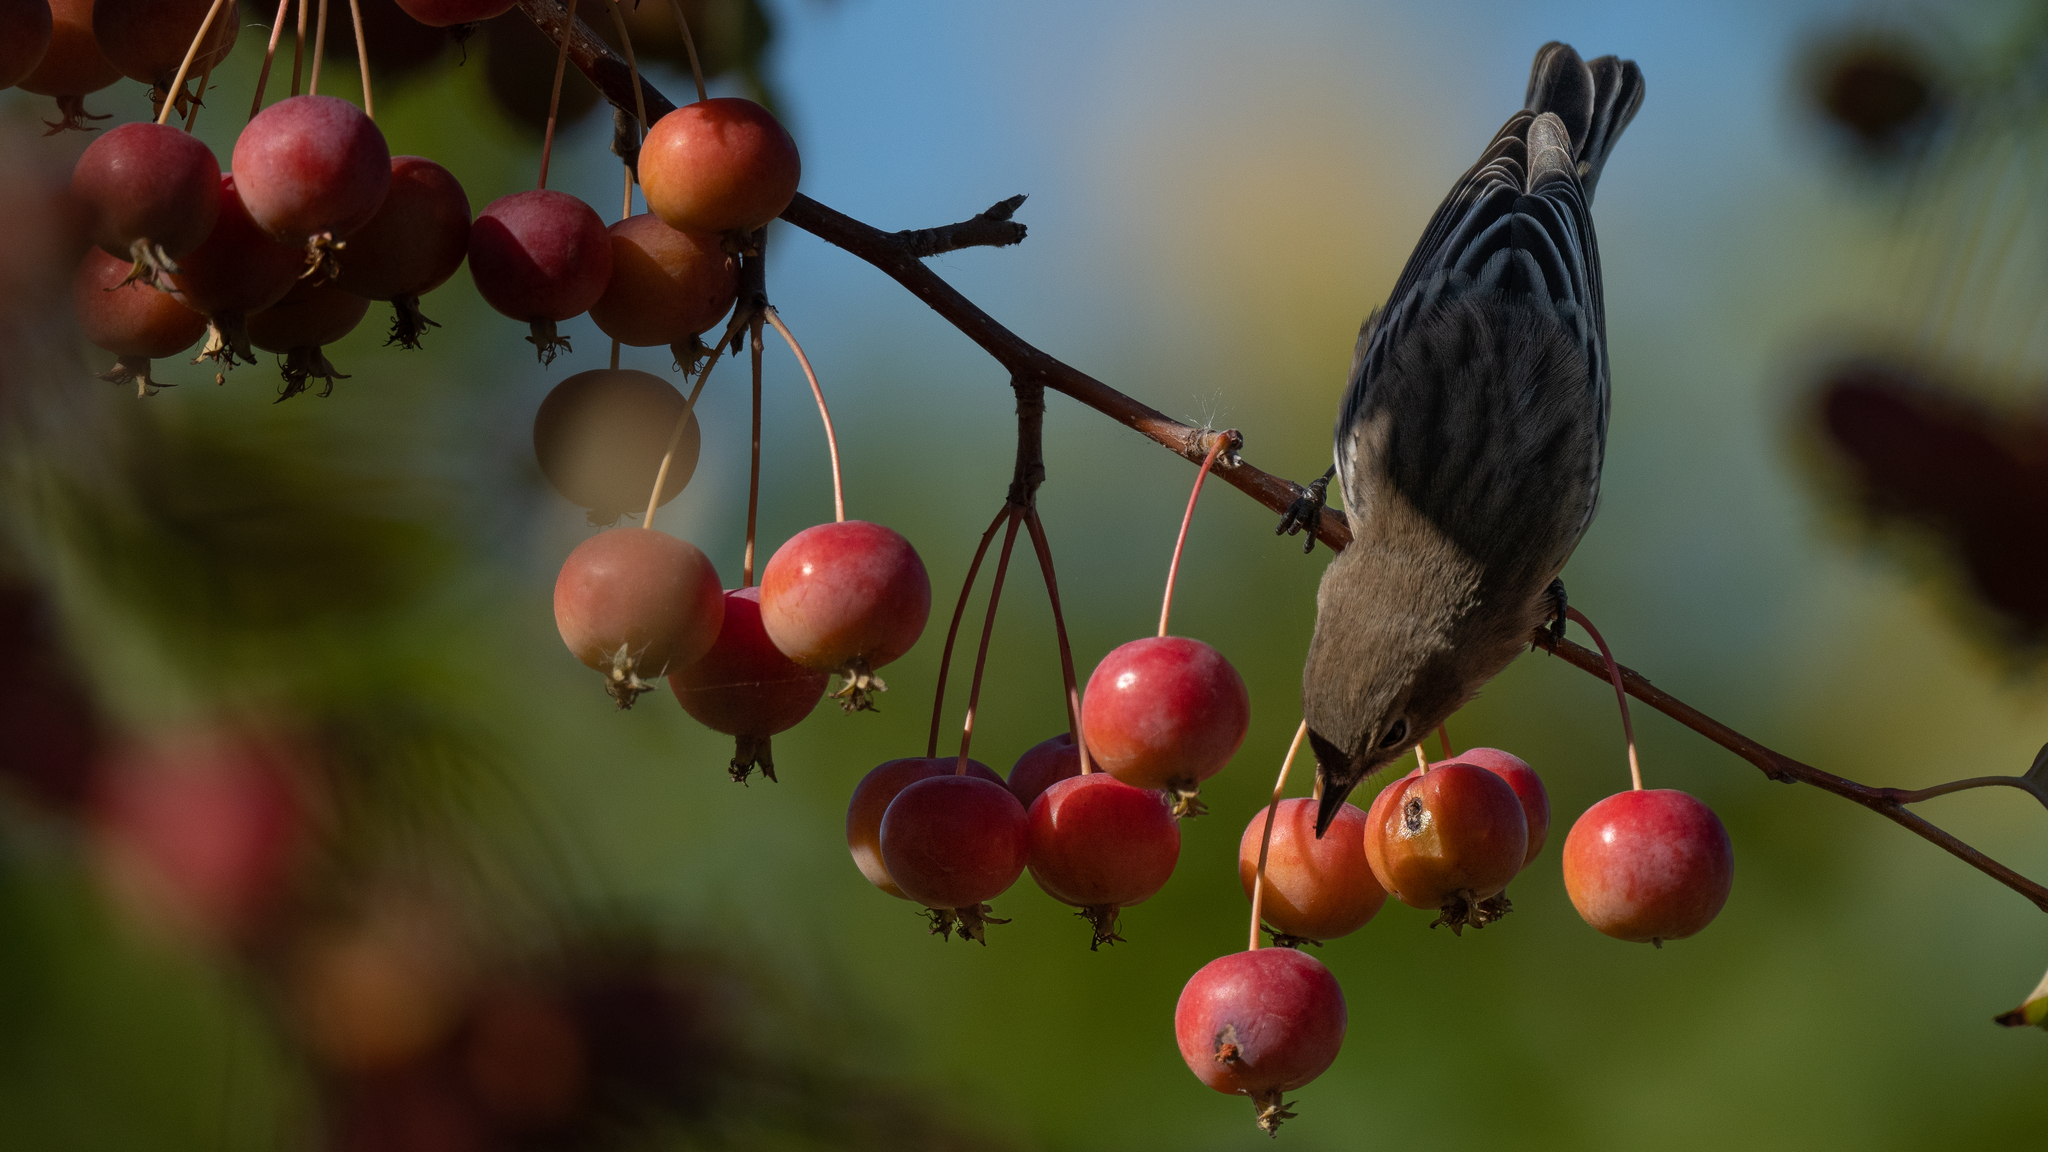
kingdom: Animalia
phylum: Chordata
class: Aves
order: Passeriformes
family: Parulidae
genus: Setophaga
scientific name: Setophaga coronata
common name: Myrtle warbler
